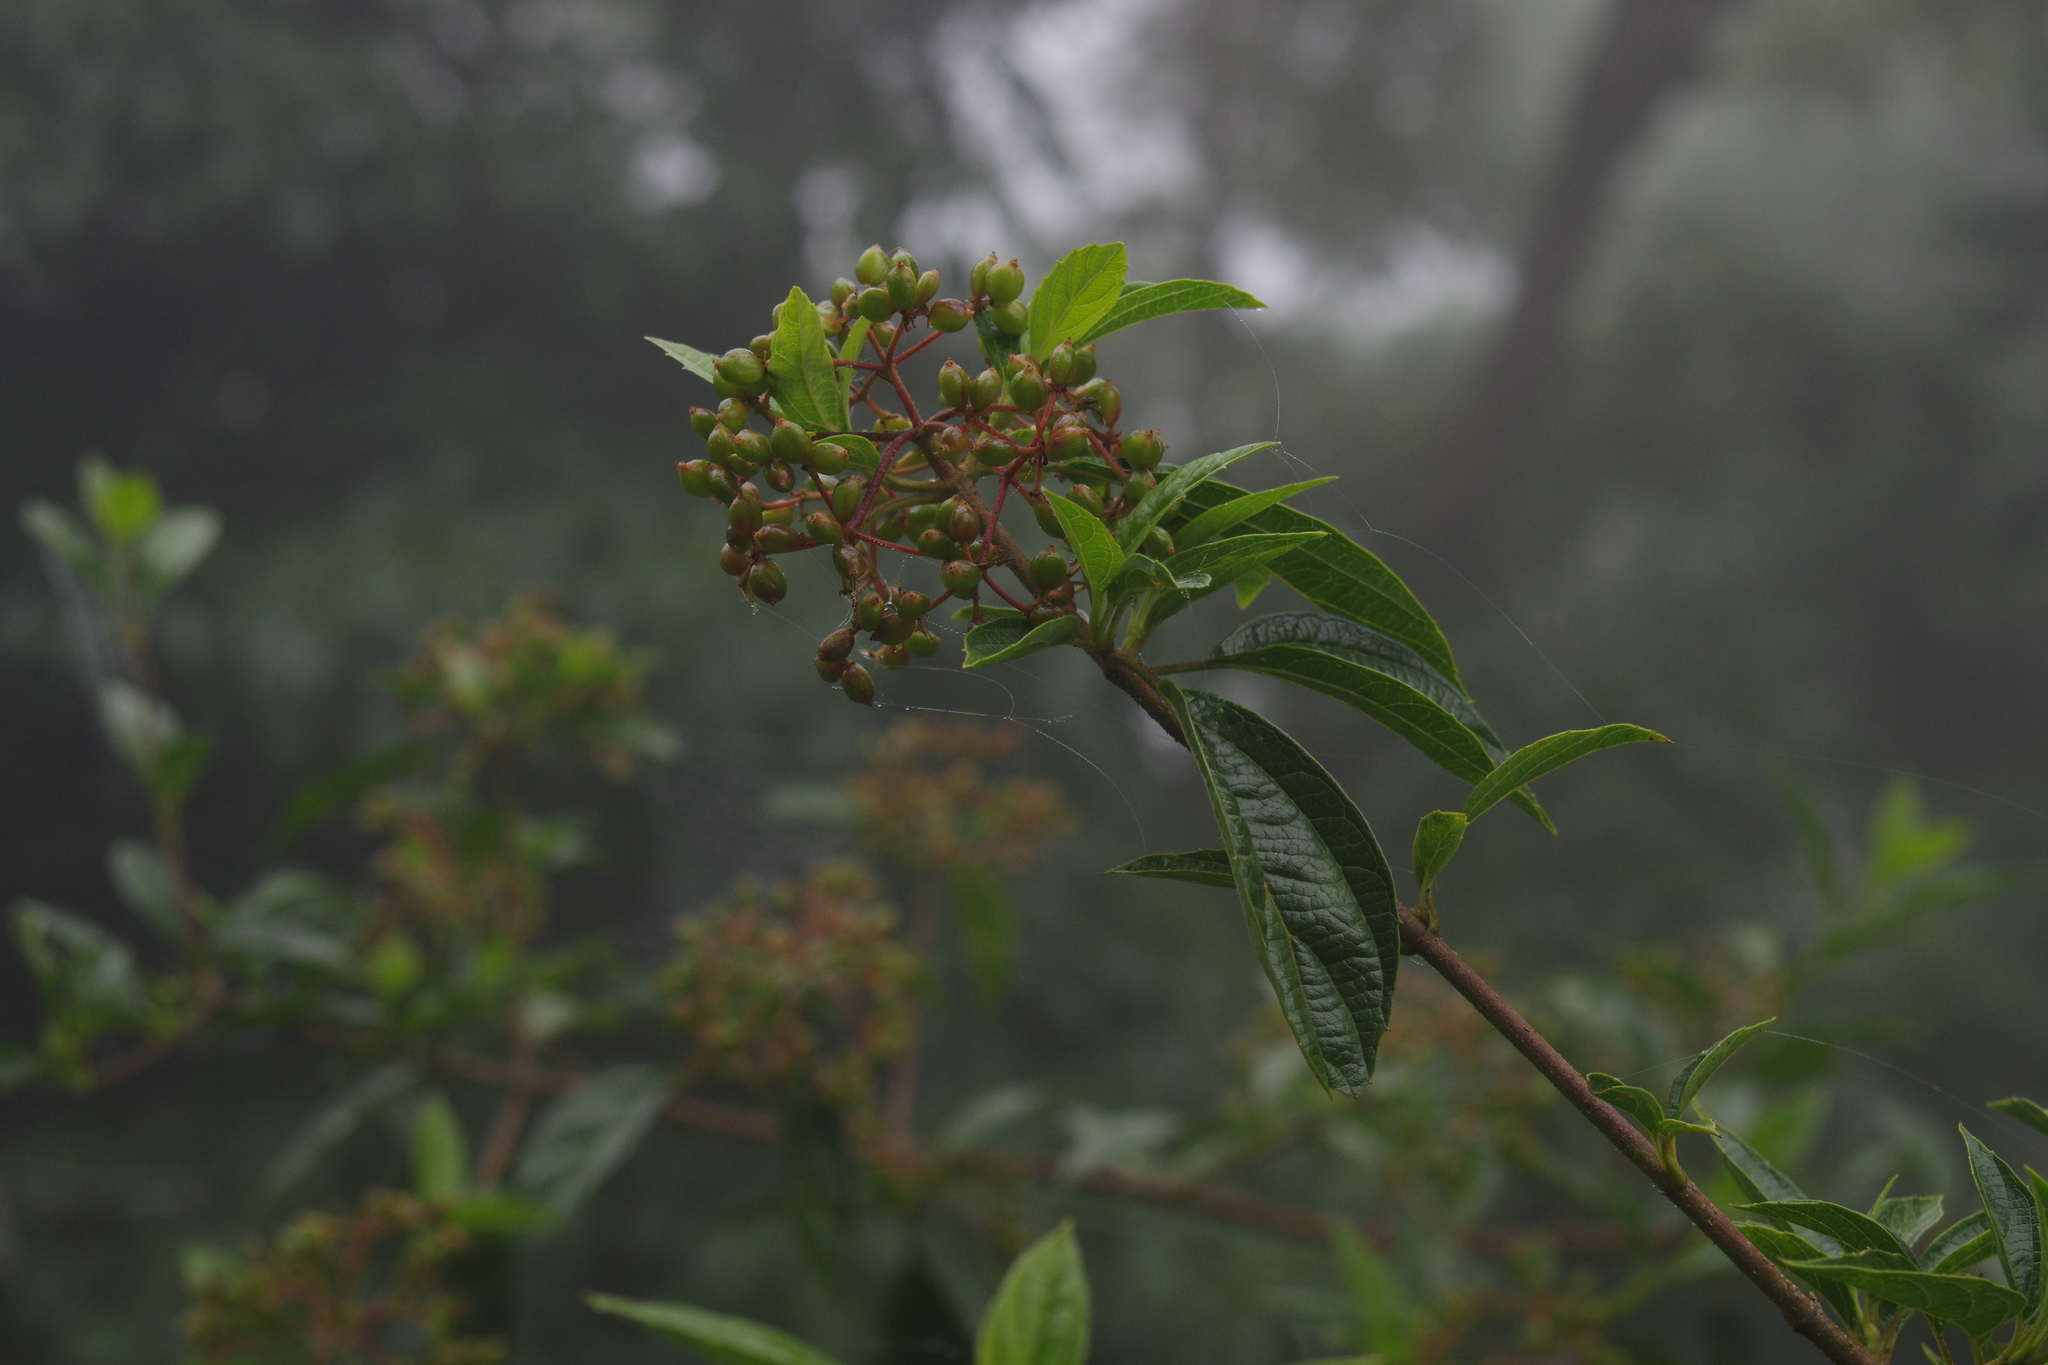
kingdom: Plantae
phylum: Tracheophyta
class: Magnoliopsida
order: Dipsacales
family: Viburnaceae
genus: Viburnum
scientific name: Viburnum foetidum
